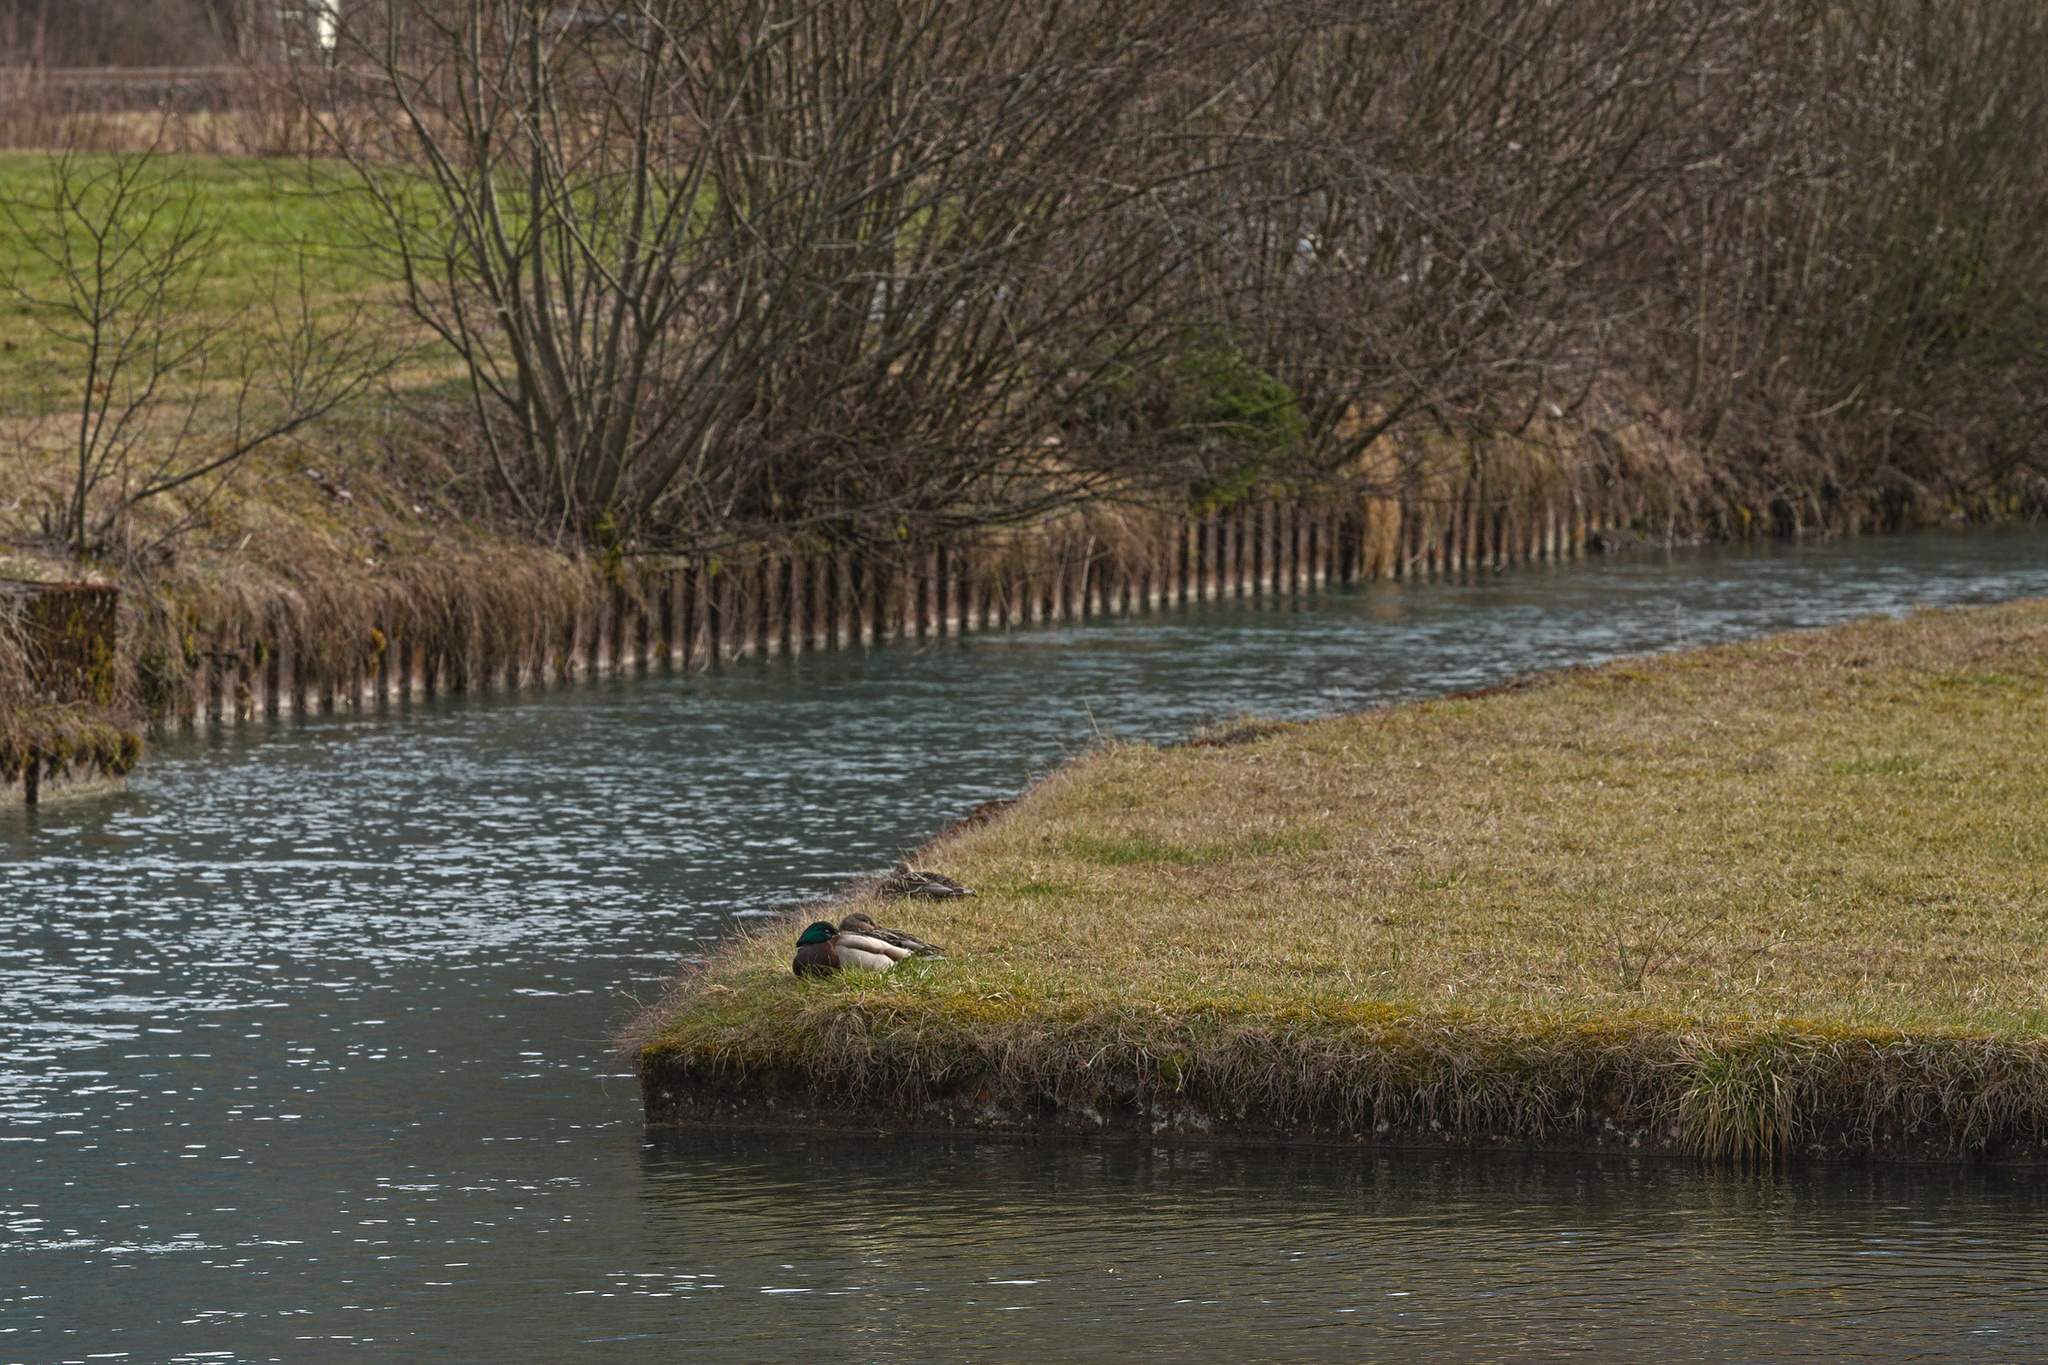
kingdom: Animalia
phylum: Chordata
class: Aves
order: Anseriformes
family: Anatidae
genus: Anas
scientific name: Anas platyrhynchos
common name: Mallard
